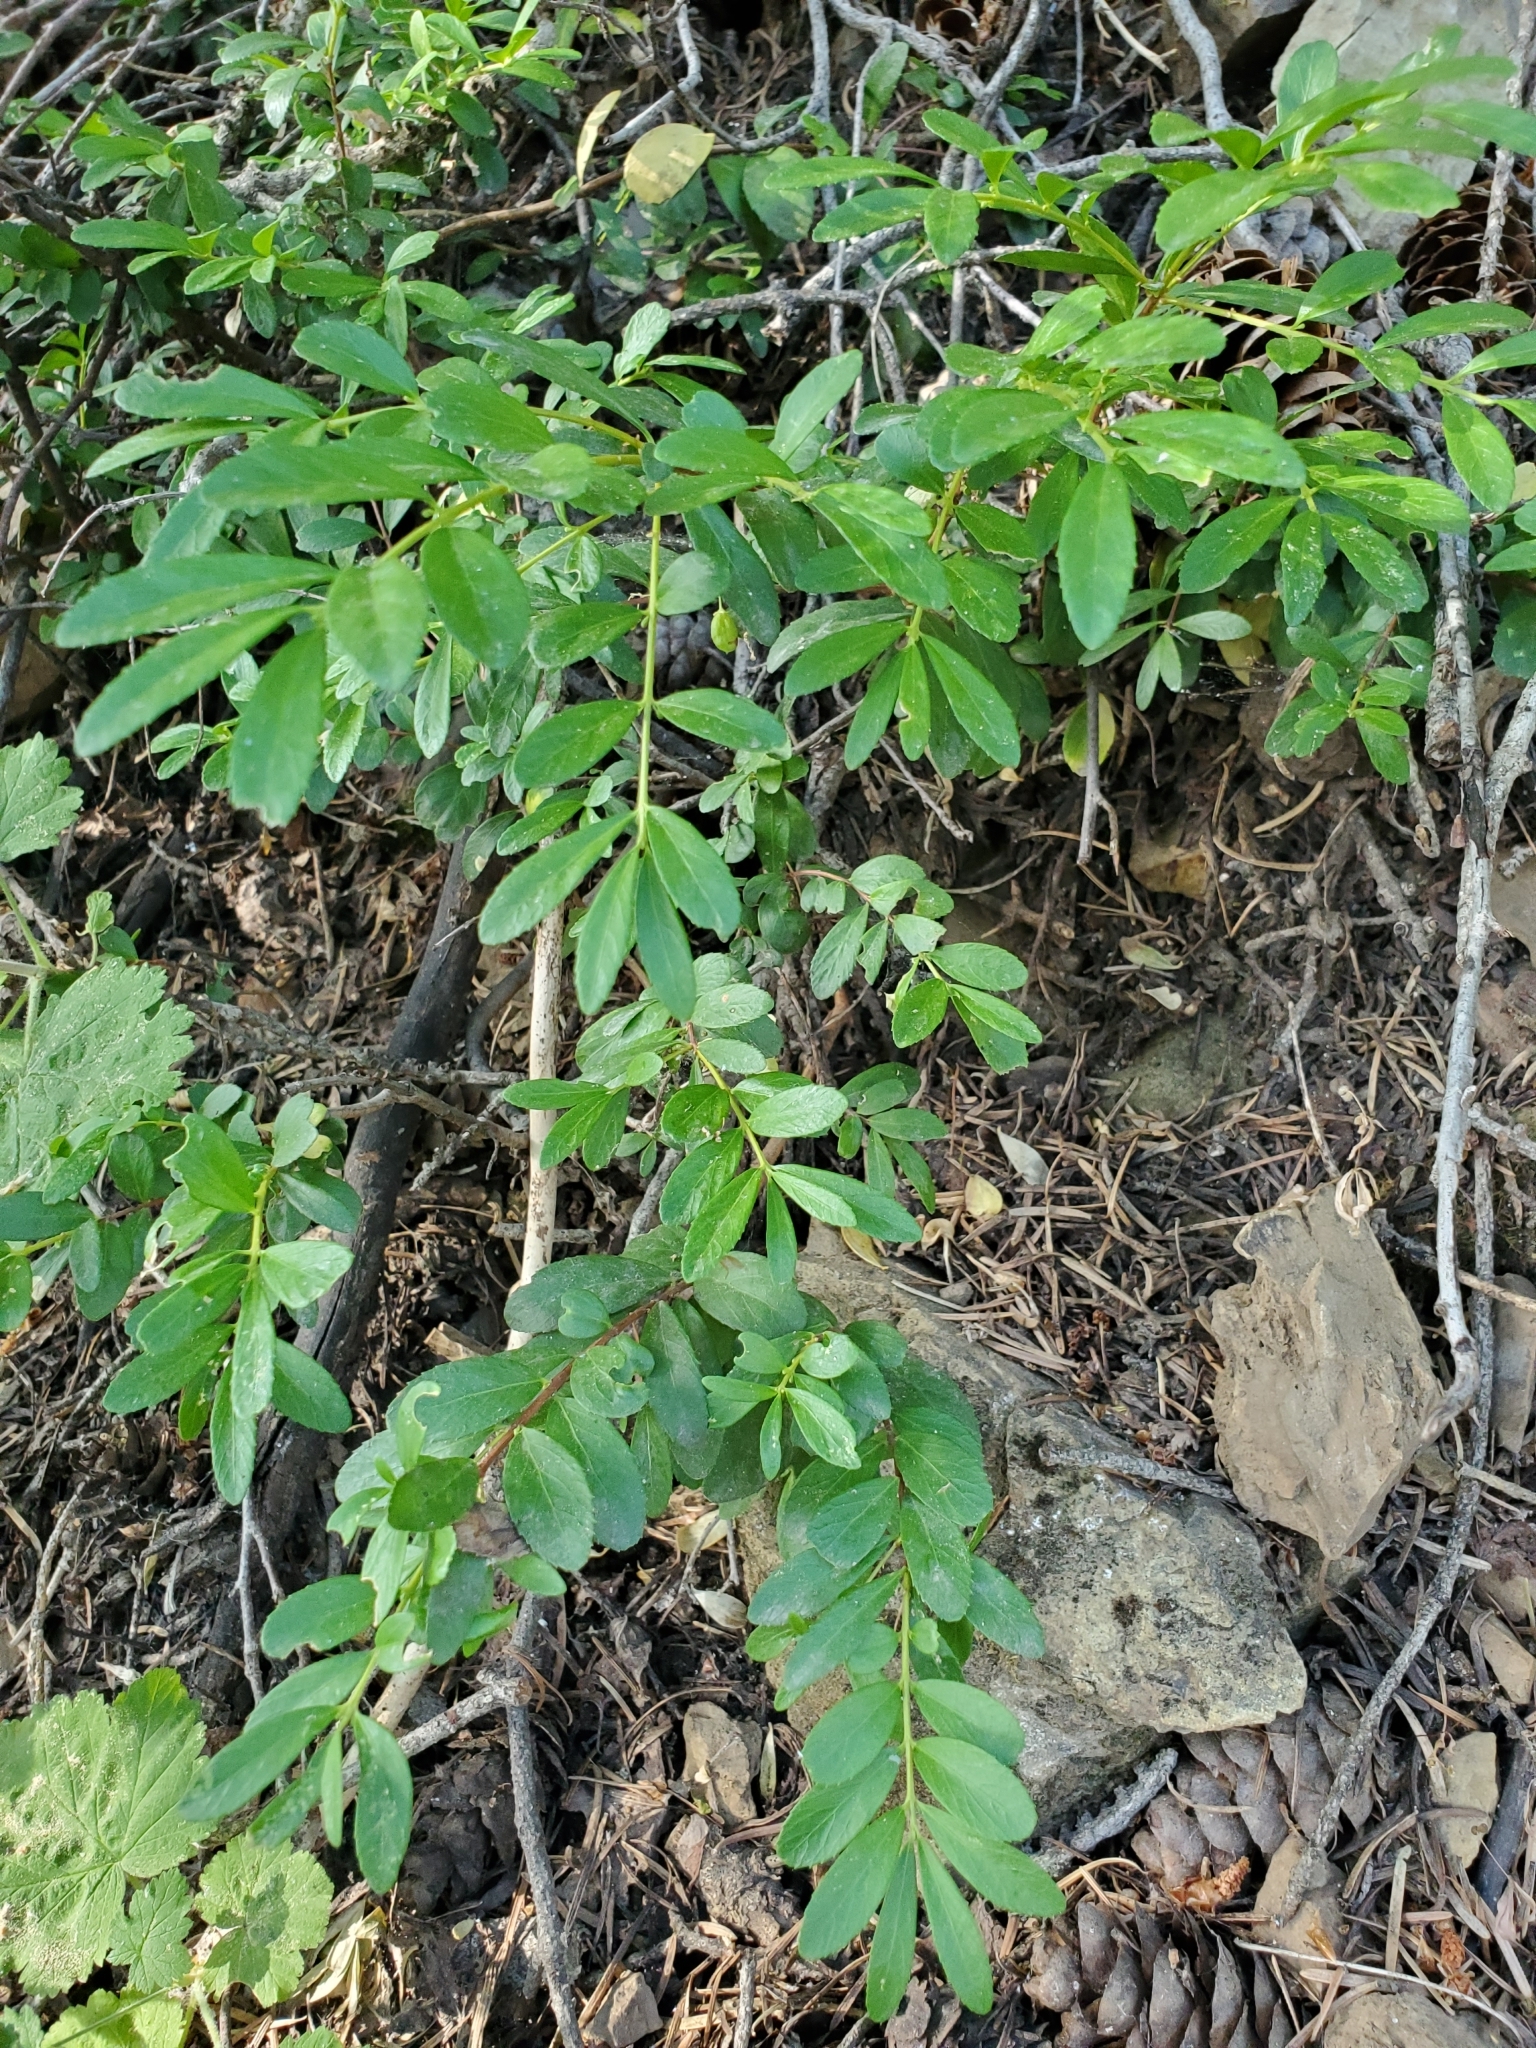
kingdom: Plantae
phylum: Tracheophyta
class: Magnoliopsida
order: Celastrales
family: Celastraceae
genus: Paxistima
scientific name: Paxistima myrsinites
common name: Mountain-lover
